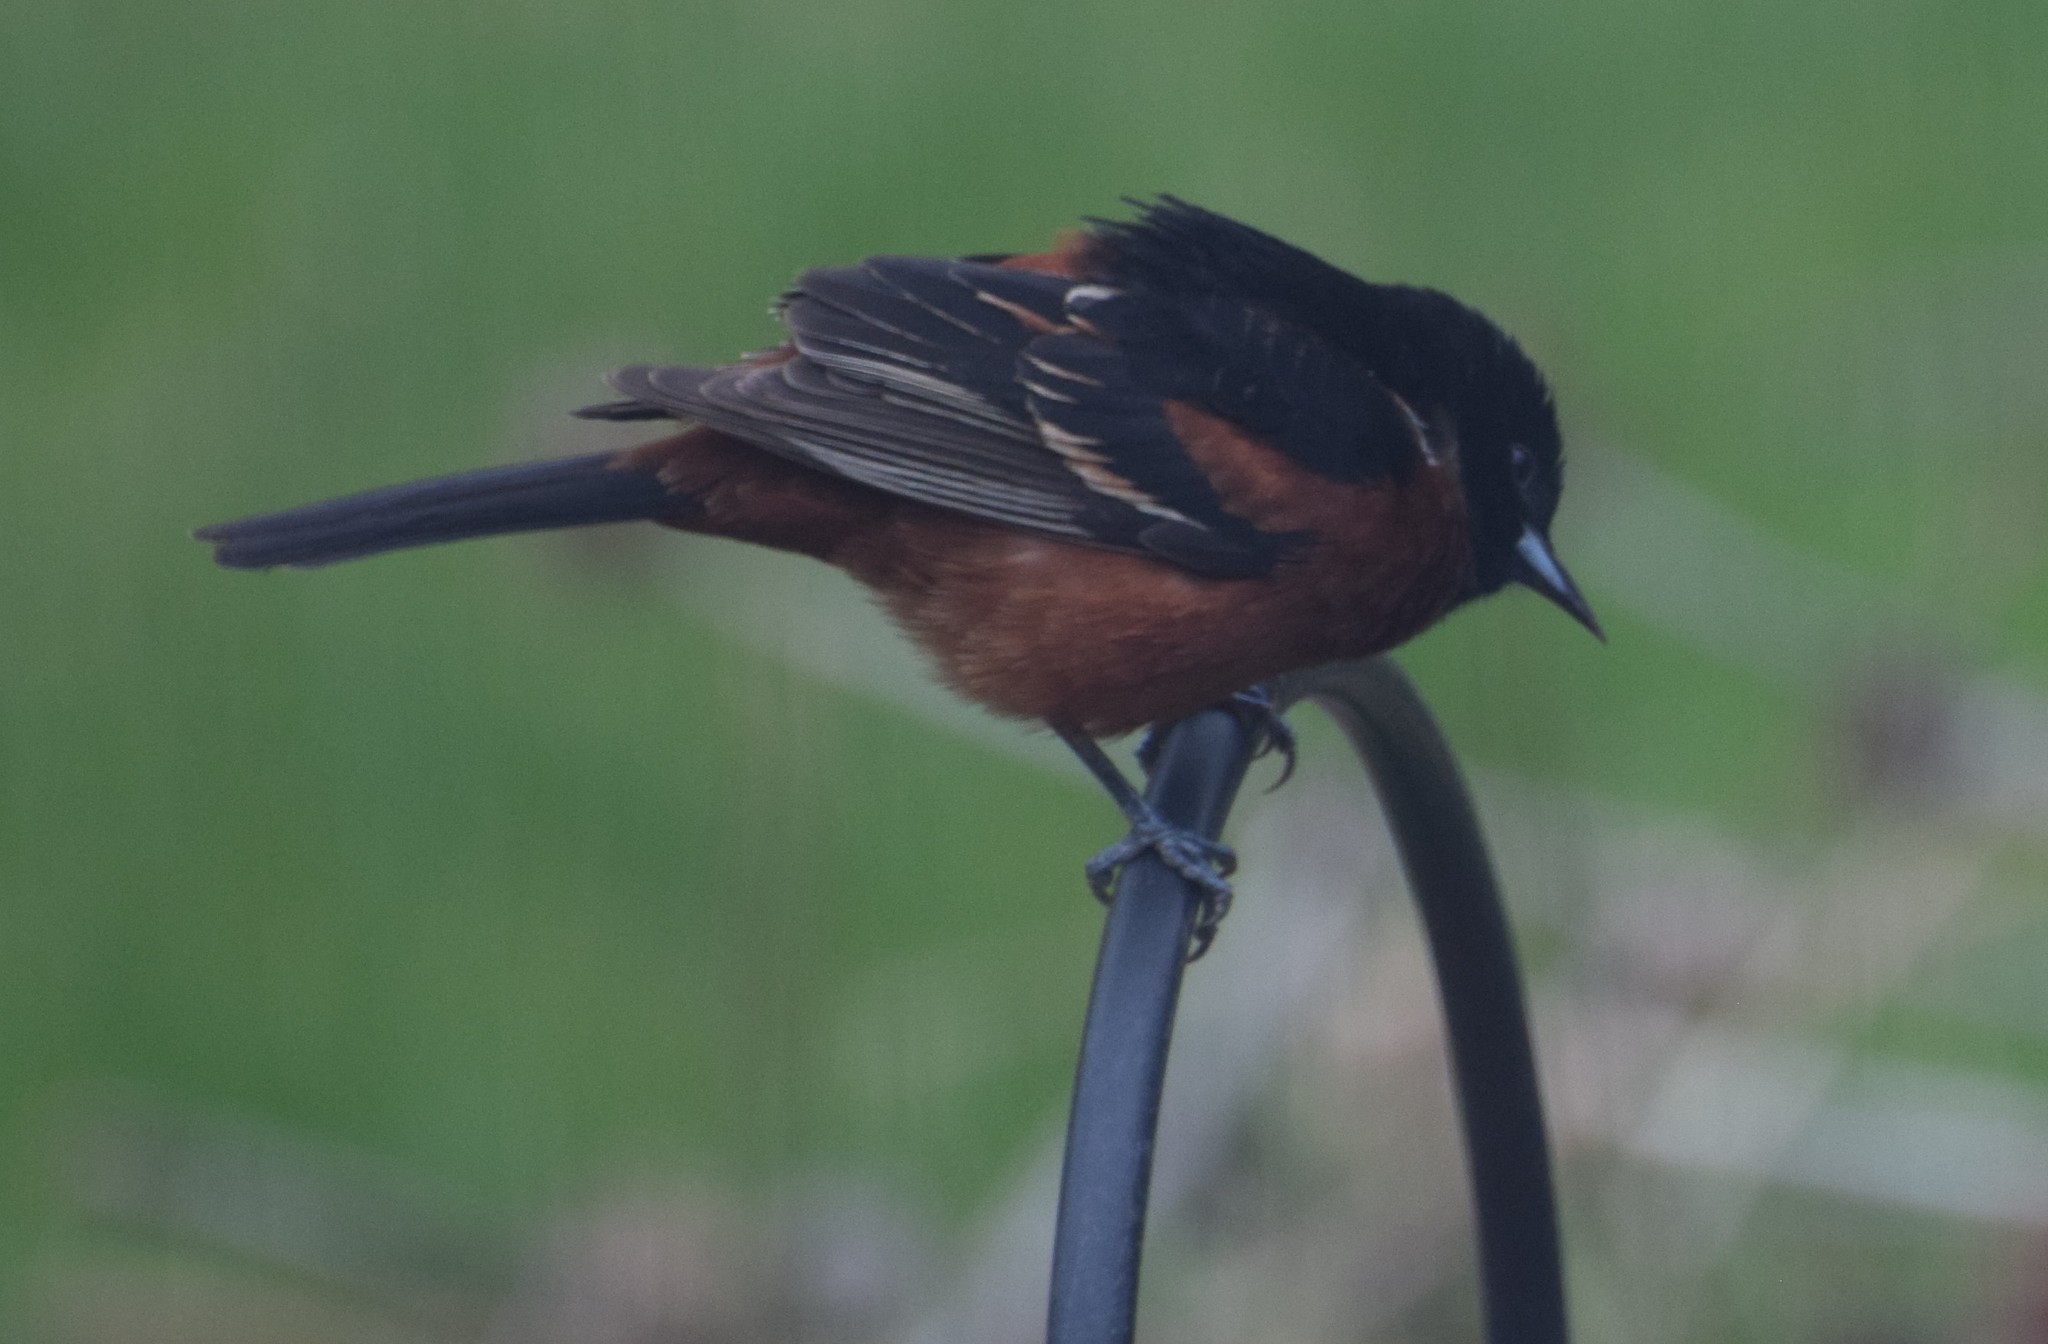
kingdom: Animalia
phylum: Chordata
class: Aves
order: Passeriformes
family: Icteridae
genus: Icterus
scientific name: Icterus spurius
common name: Orchard oriole
